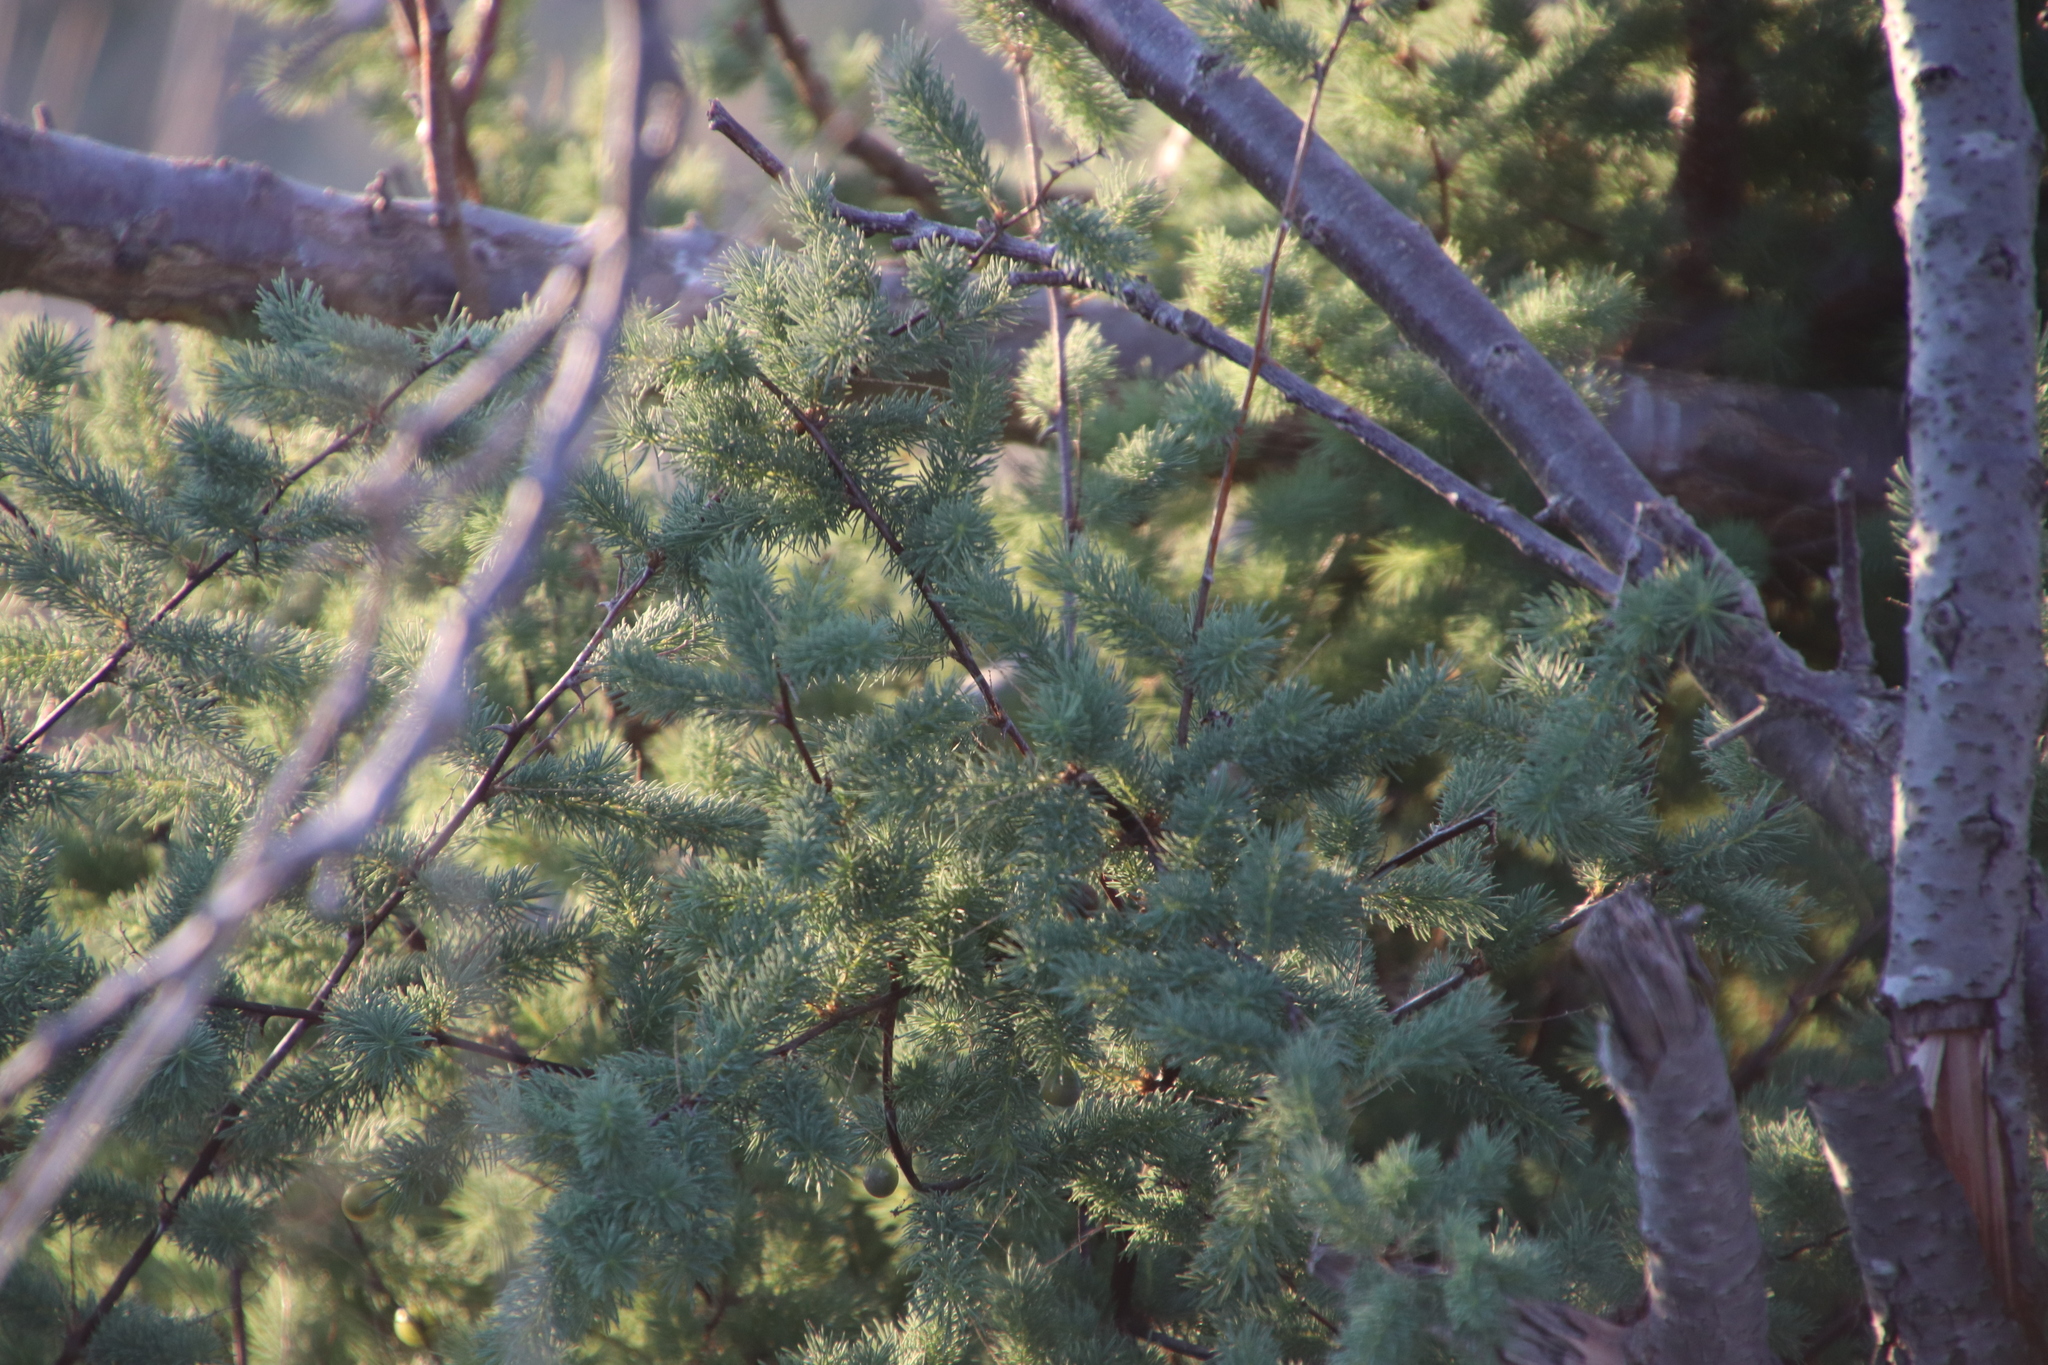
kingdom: Plantae
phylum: Tracheophyta
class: Liliopsida
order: Asparagales
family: Asparagaceae
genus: Asparagus
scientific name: Asparagus rubicundus
